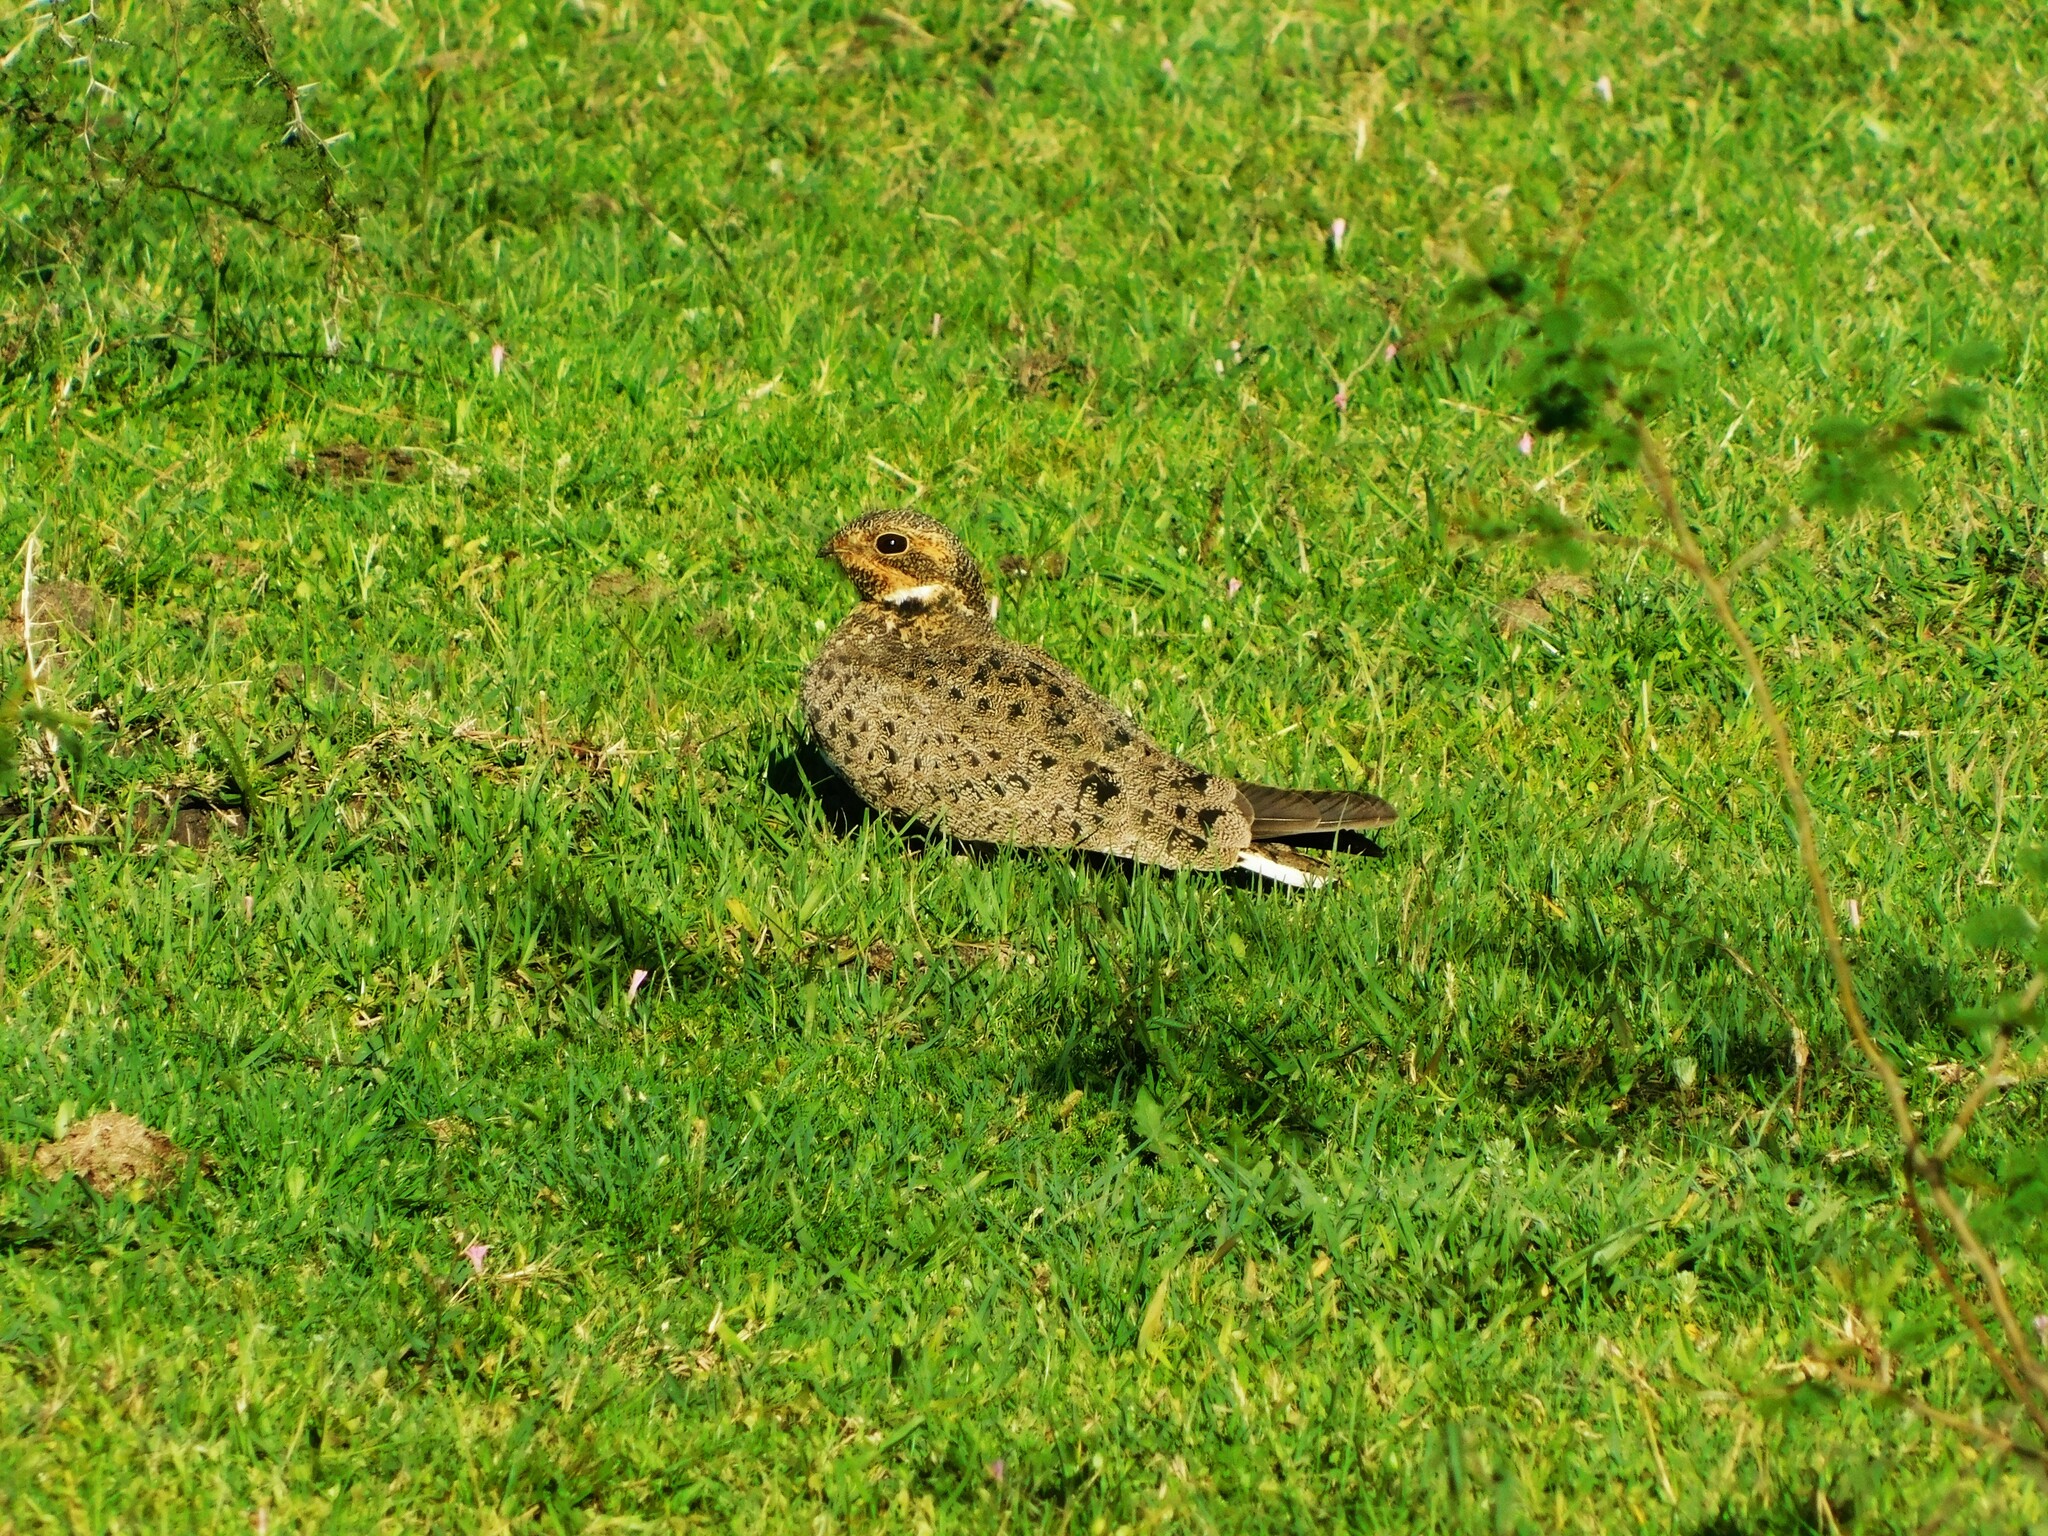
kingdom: Animalia
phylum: Chordata
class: Aves
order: Caprimulgiformes
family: Caprimulgidae
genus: Chordeiles
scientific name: Chordeiles nacunda
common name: Nacunda nighthawk
